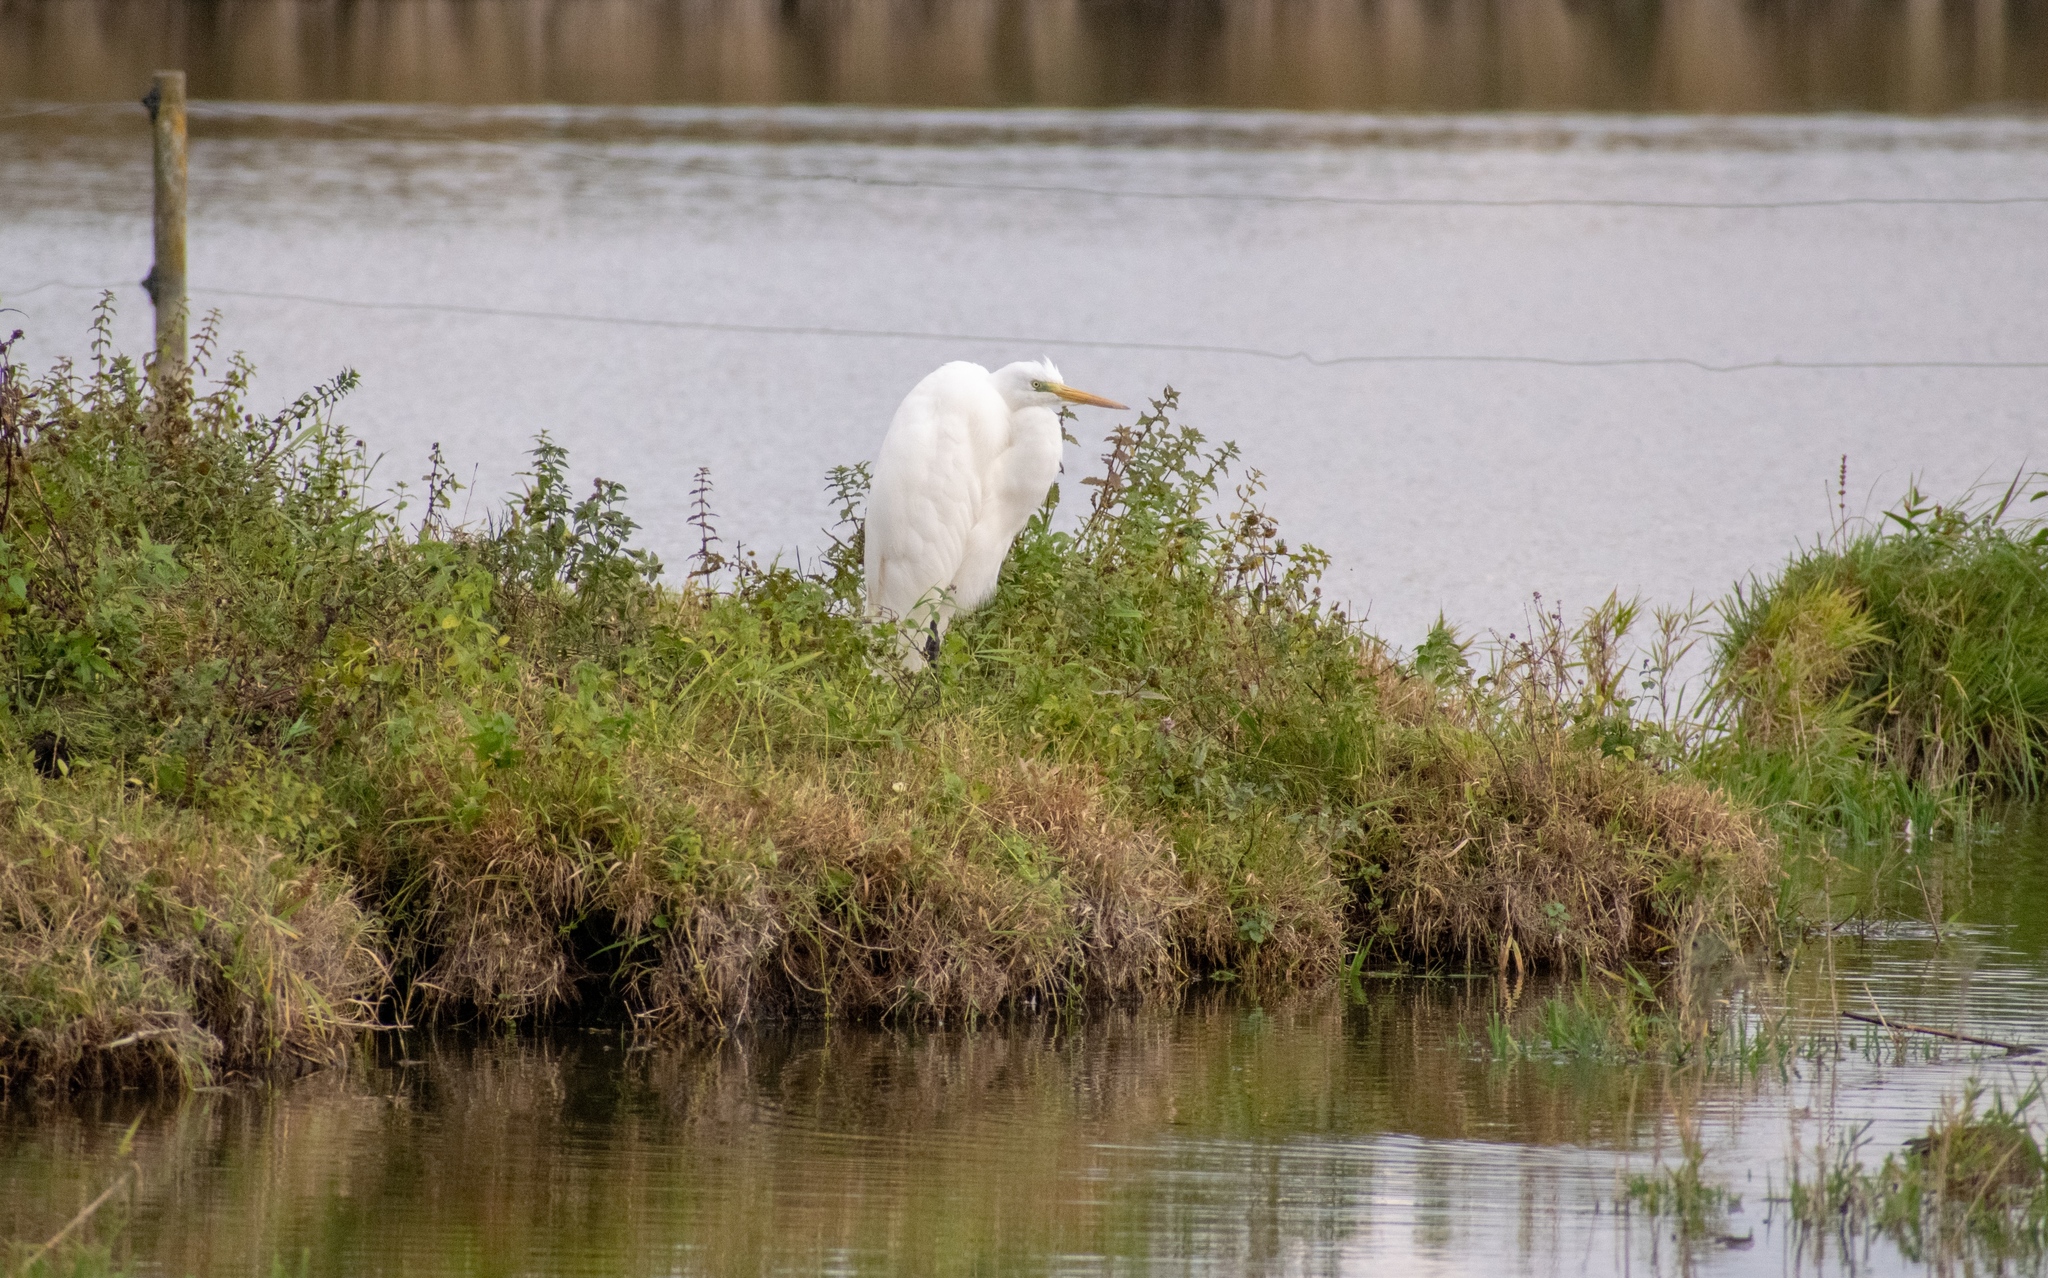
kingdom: Animalia
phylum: Chordata
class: Aves
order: Pelecaniformes
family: Ardeidae
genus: Ardea
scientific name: Ardea alba
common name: Great egret
